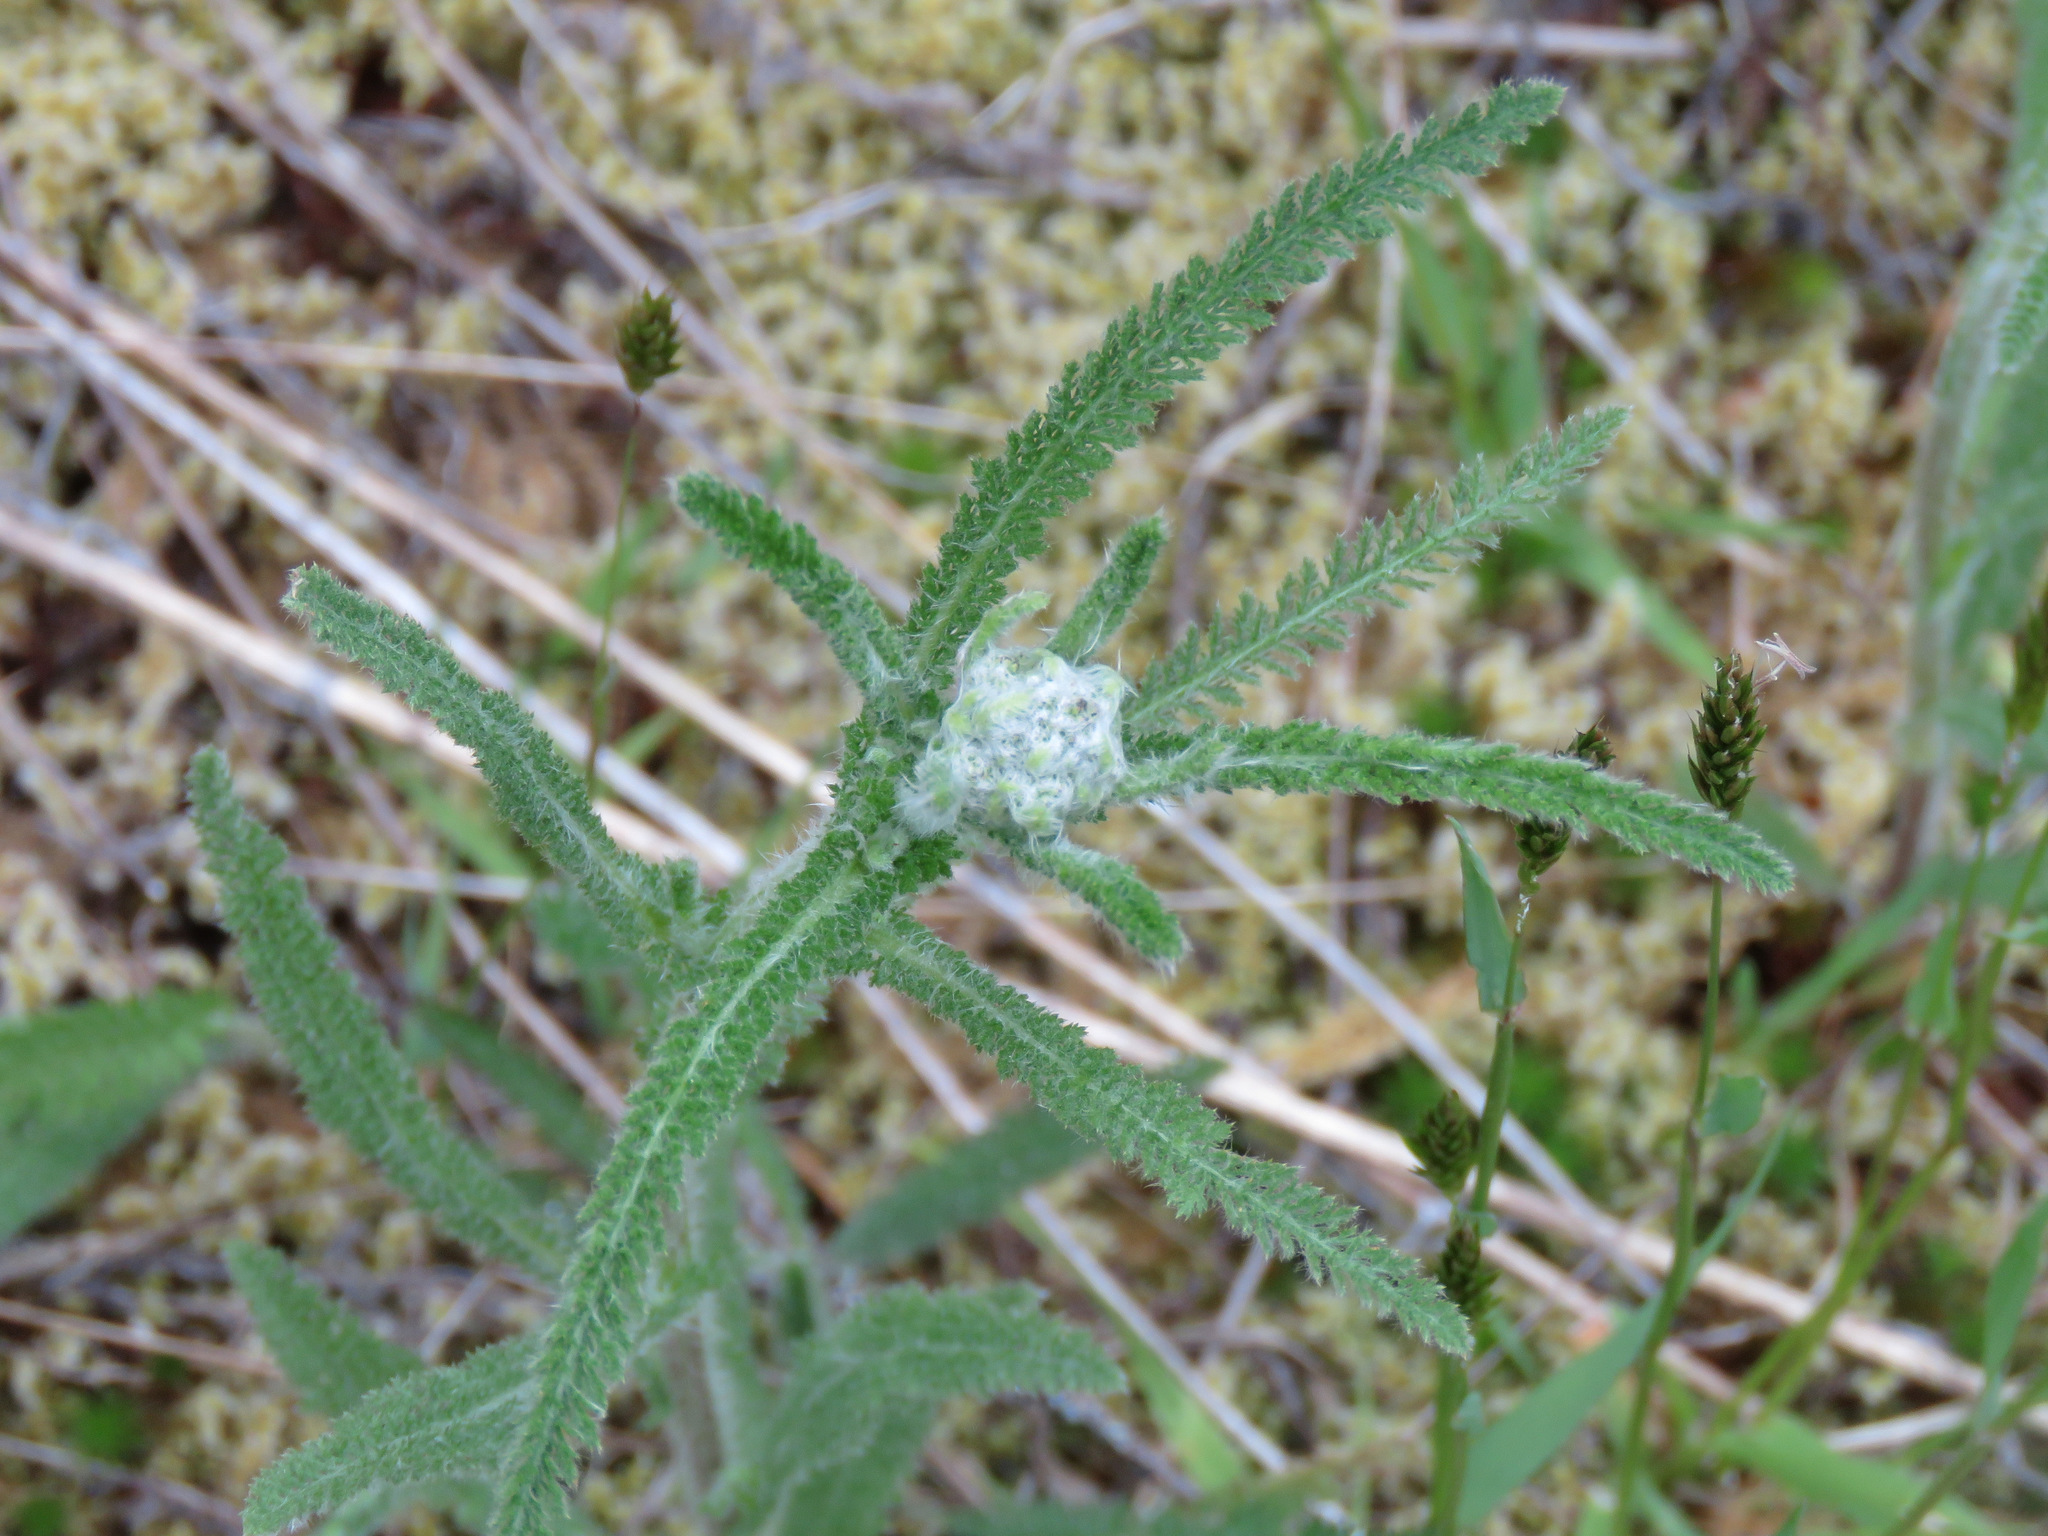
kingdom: Plantae
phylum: Tracheophyta
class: Magnoliopsida
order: Asterales
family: Asteraceae
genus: Achillea
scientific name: Achillea millefolium
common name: Yarrow
